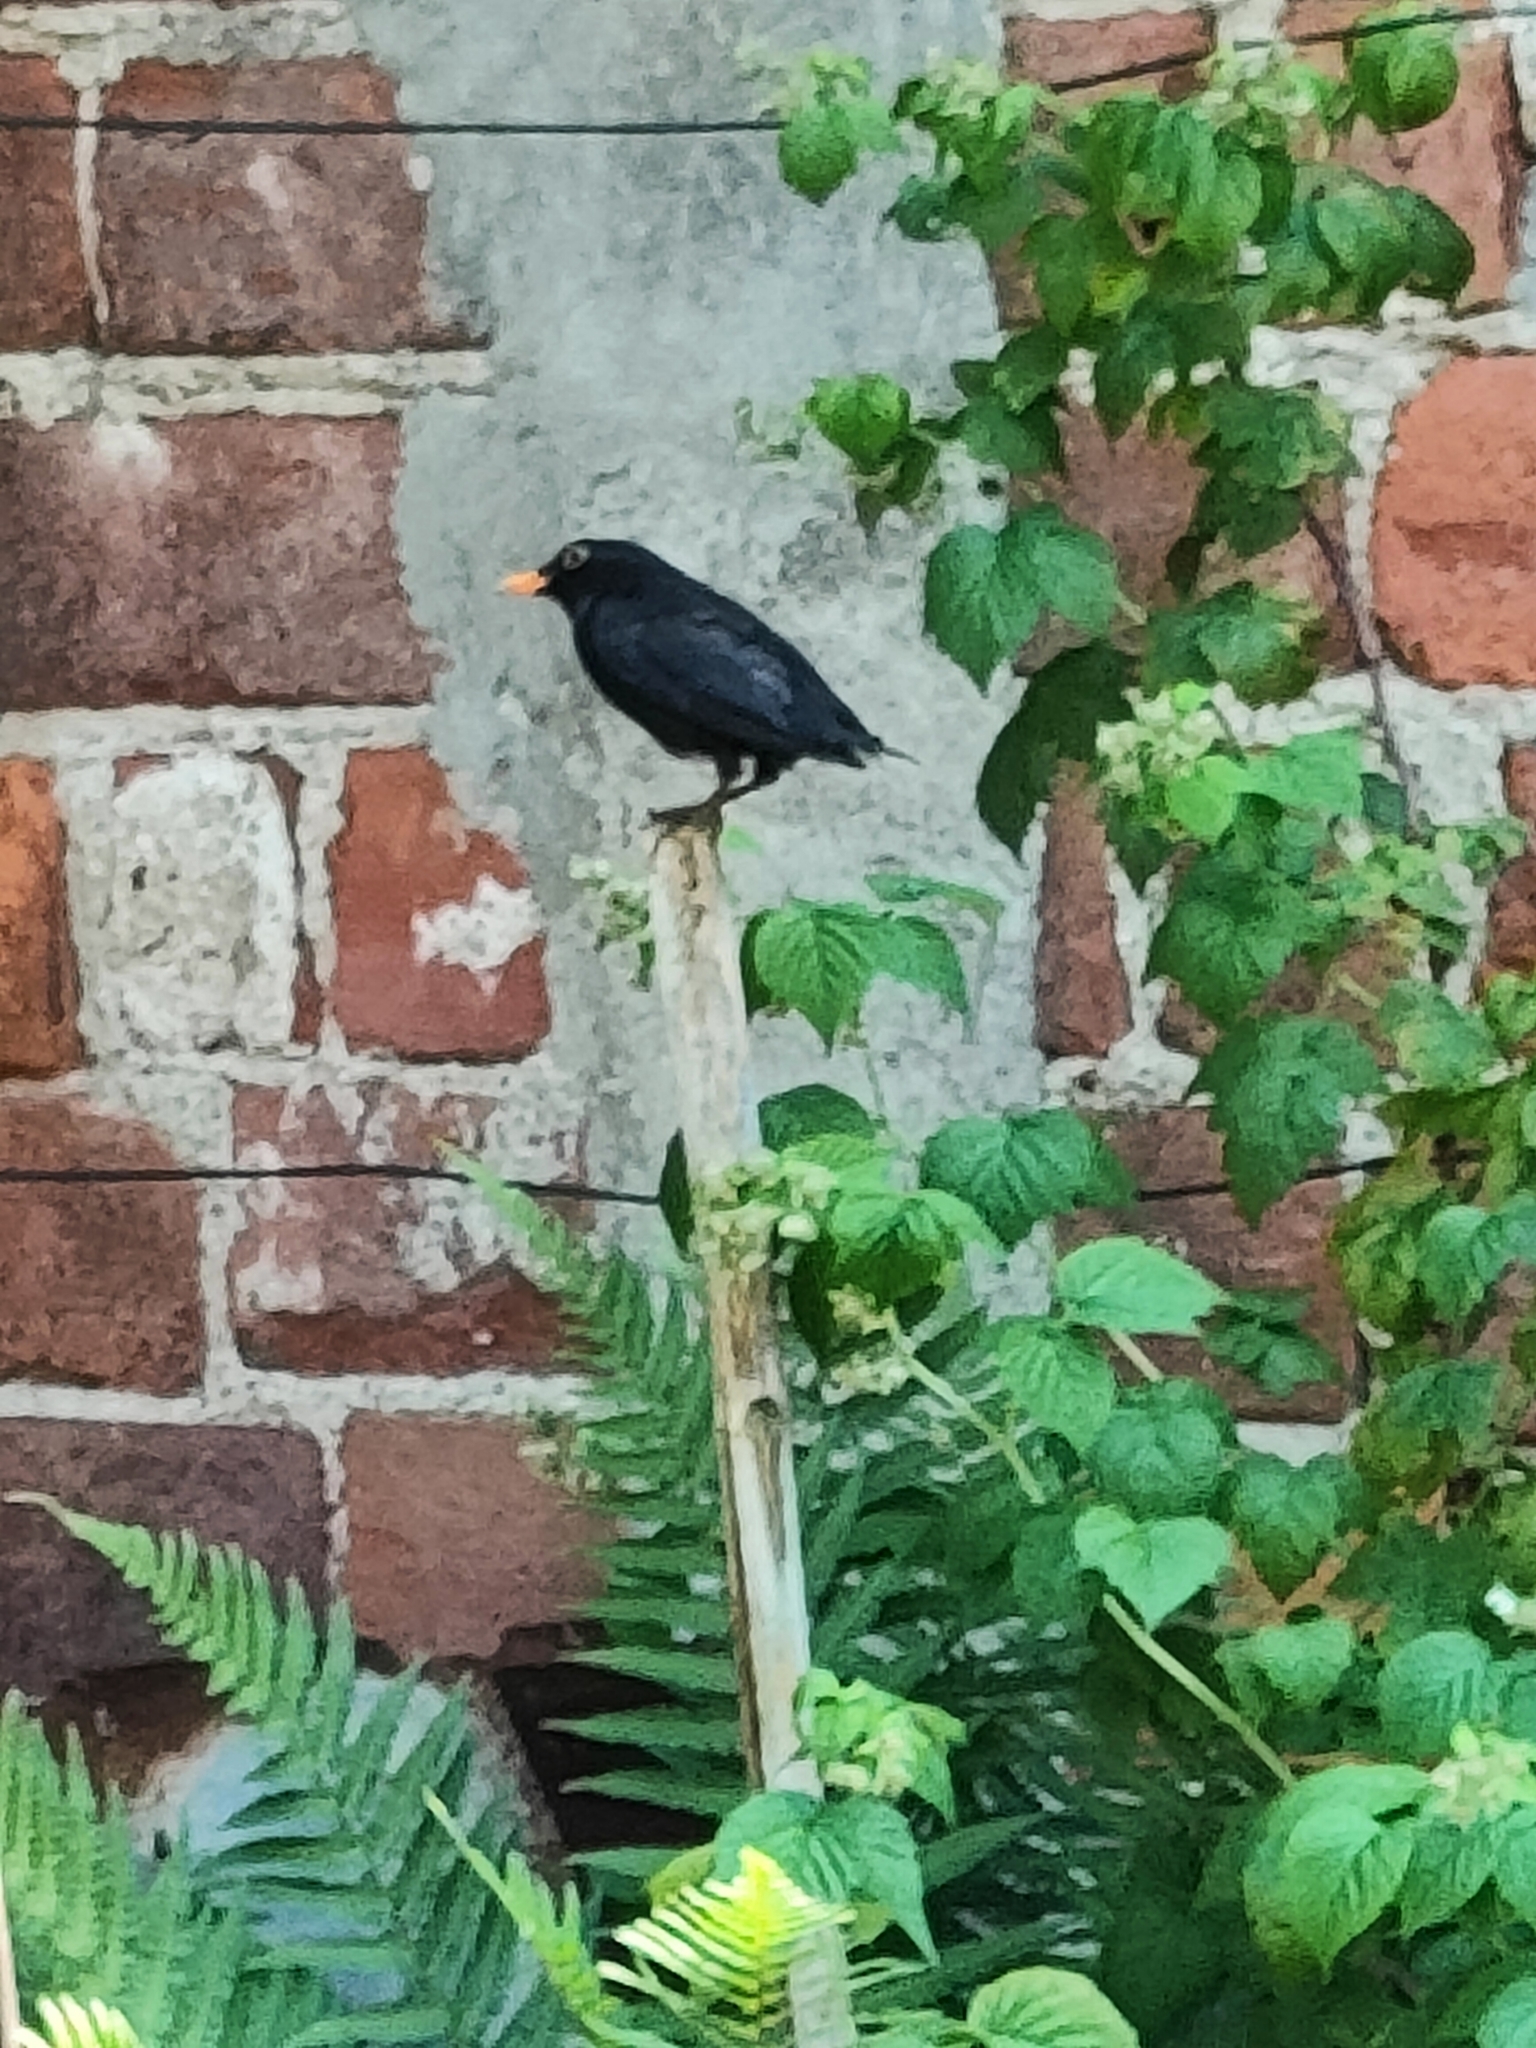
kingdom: Animalia
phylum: Chordata
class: Aves
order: Passeriformes
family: Turdidae
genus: Turdus
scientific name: Turdus merula
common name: Common blackbird
